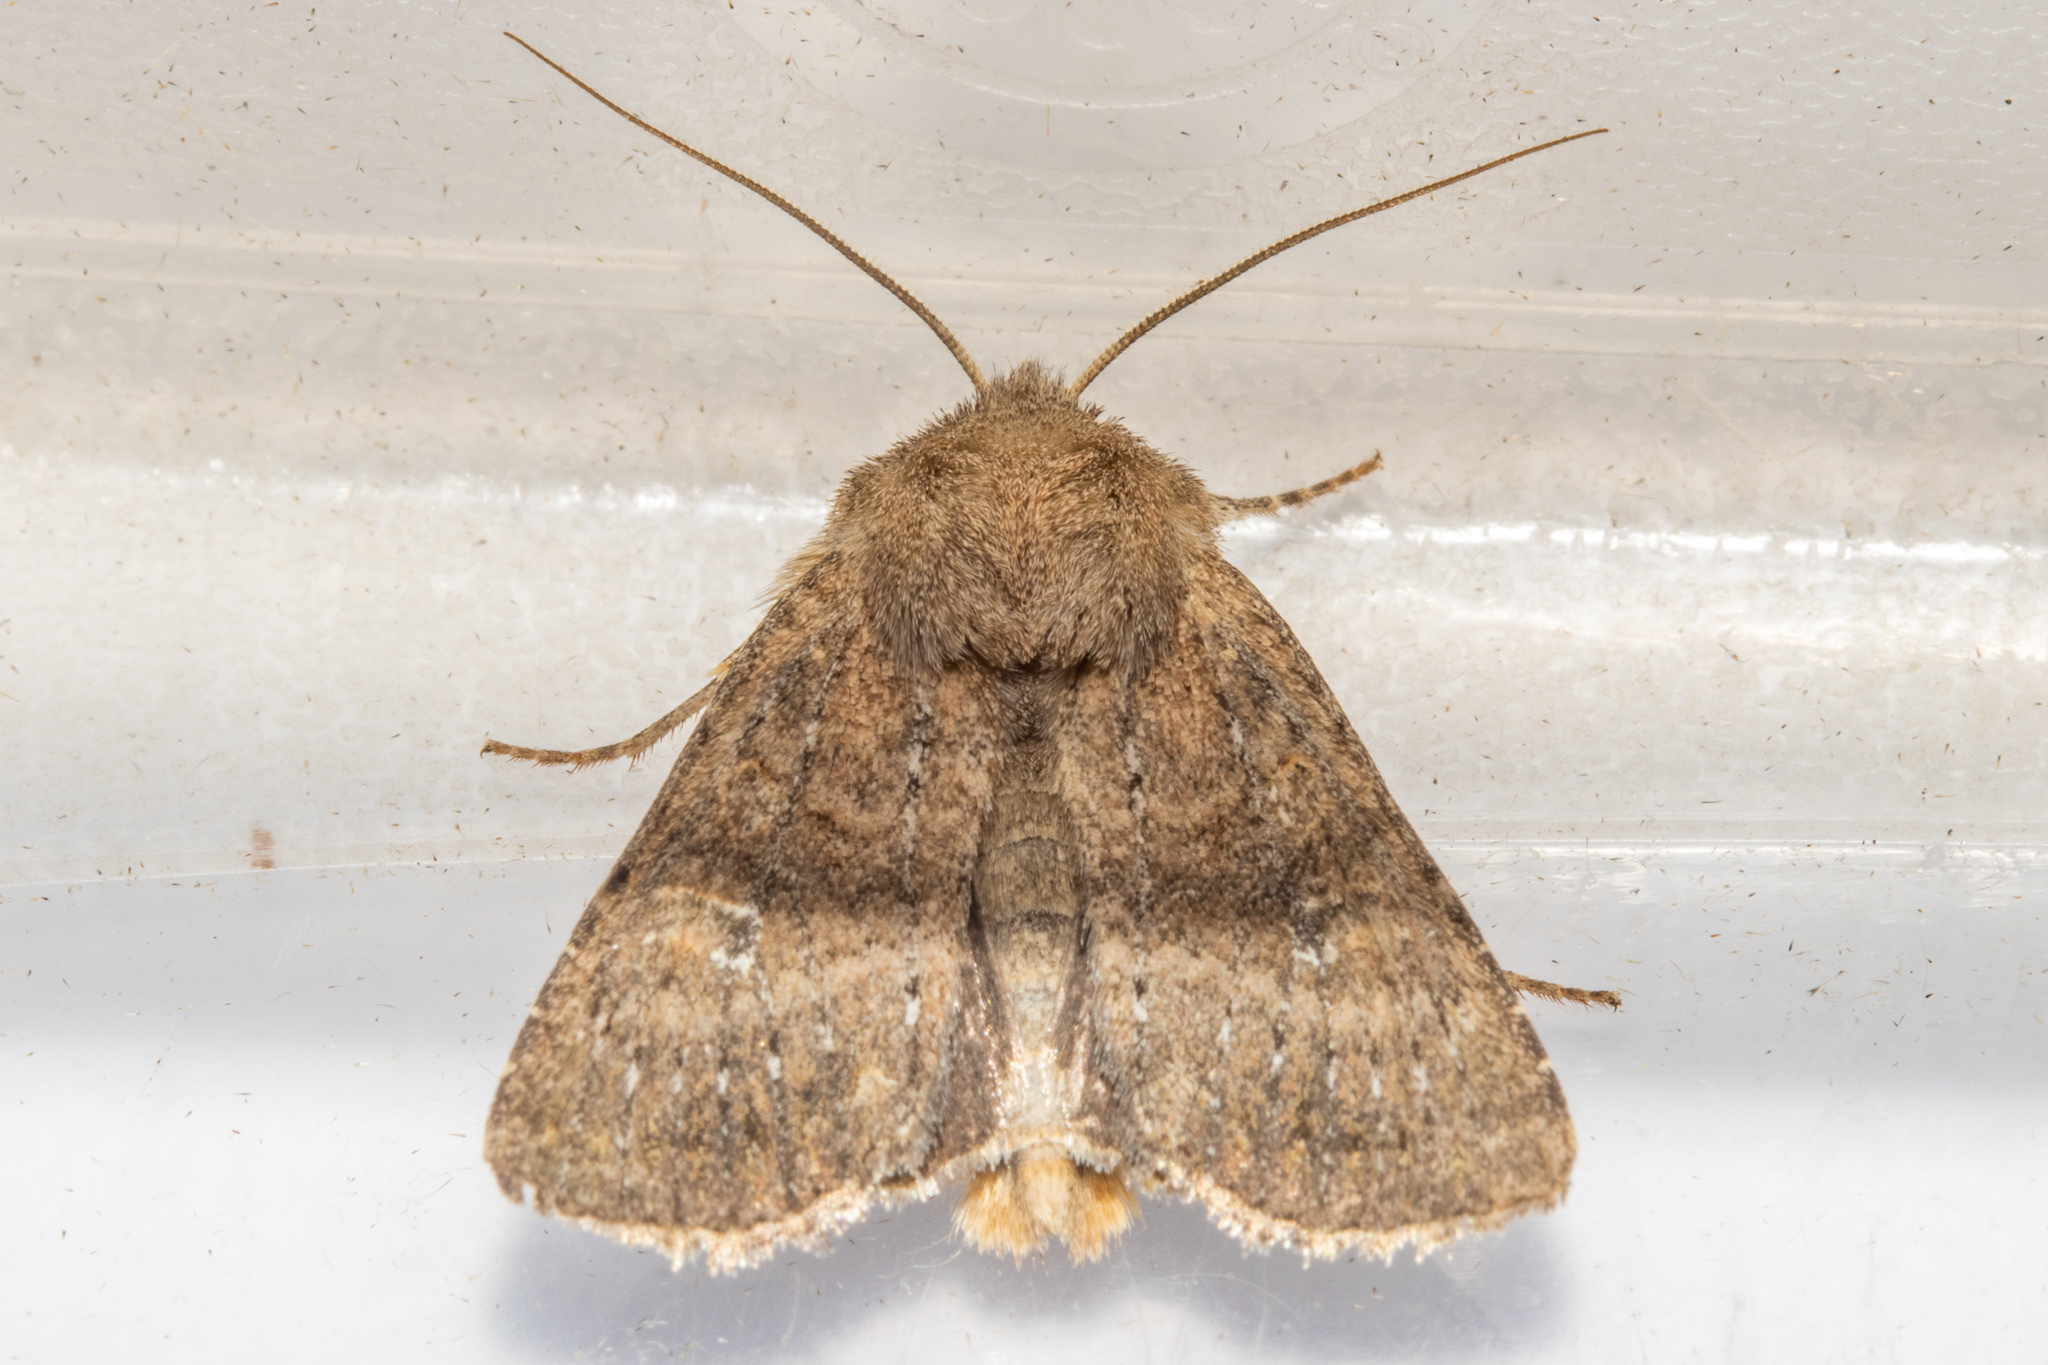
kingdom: Animalia
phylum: Arthropoda
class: Insecta
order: Lepidoptera
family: Noctuidae
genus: Physetica
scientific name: Physetica
